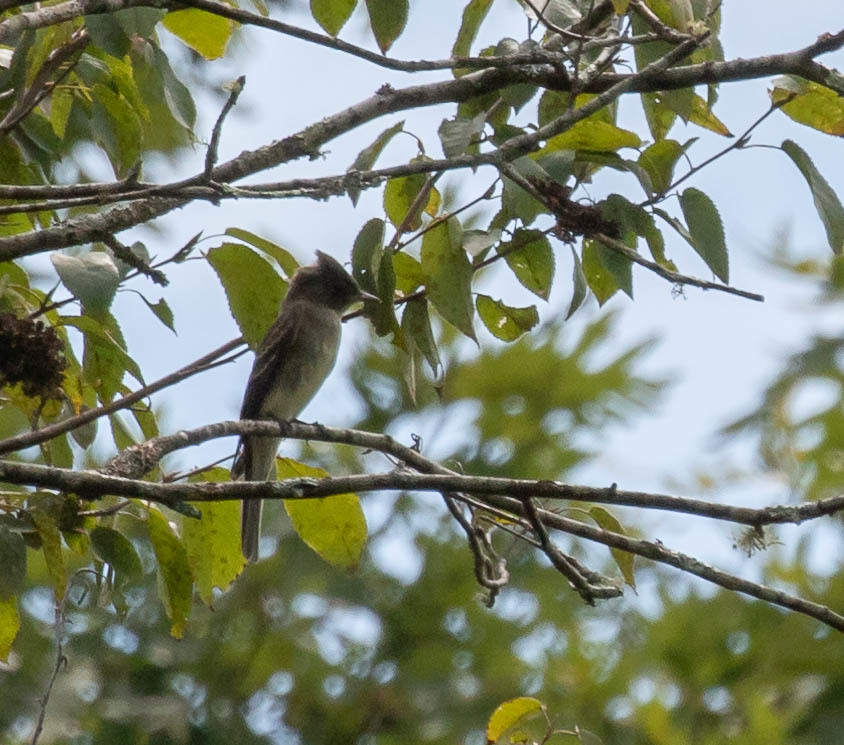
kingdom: Animalia
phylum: Chordata
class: Aves
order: Passeriformes
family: Tyrannidae
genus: Contopus
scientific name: Contopus virens
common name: Eastern wood-pewee
